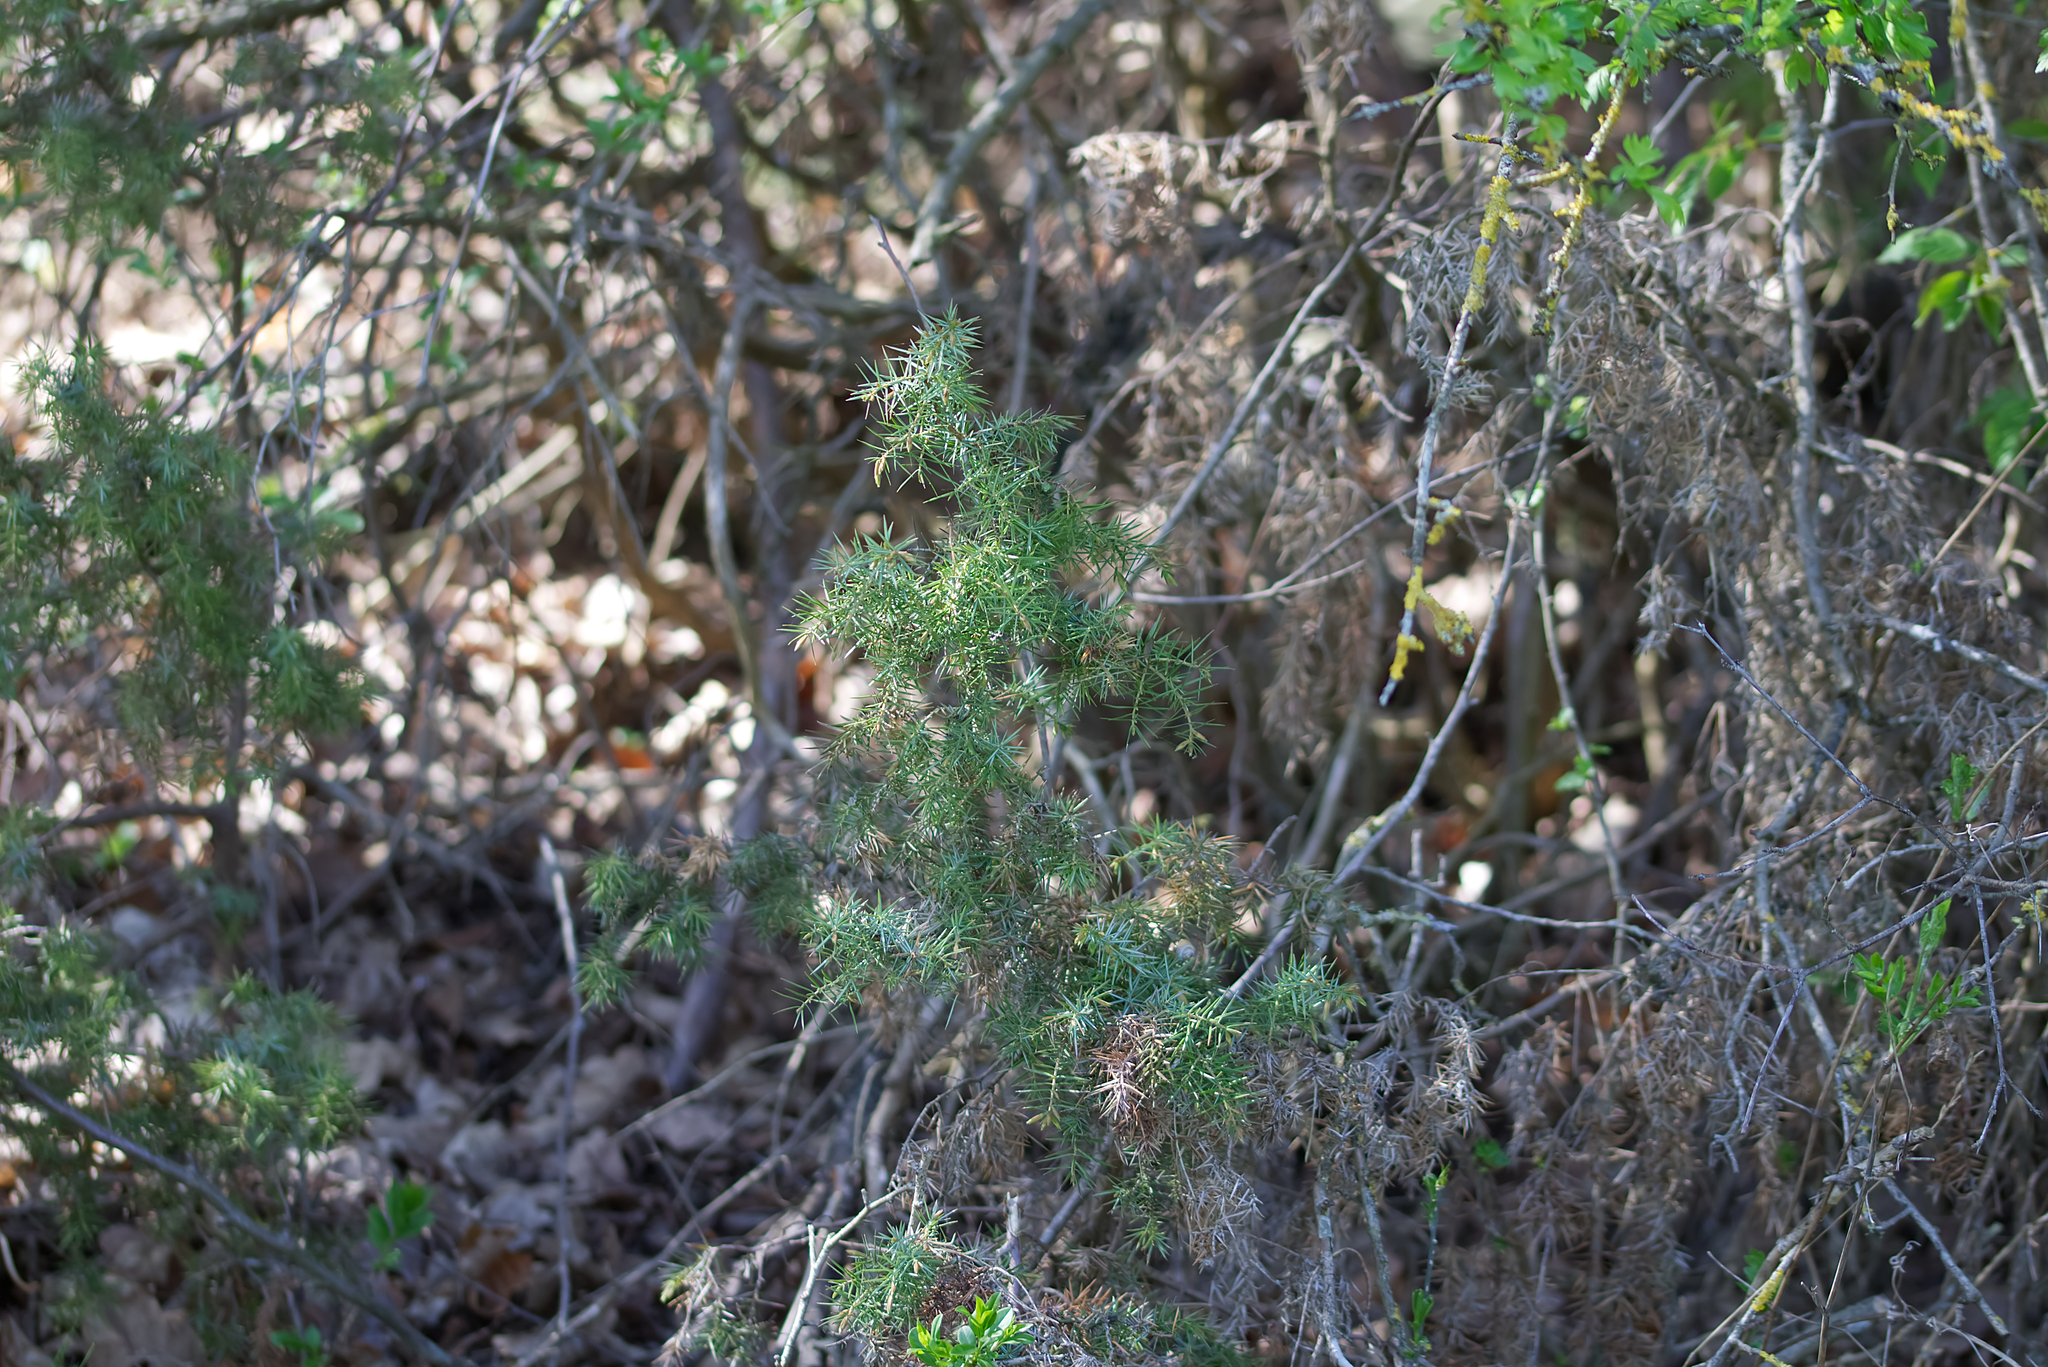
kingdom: Plantae
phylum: Tracheophyta
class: Pinopsida
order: Pinales
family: Cupressaceae
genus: Juniperus
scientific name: Juniperus communis
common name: Common juniper
